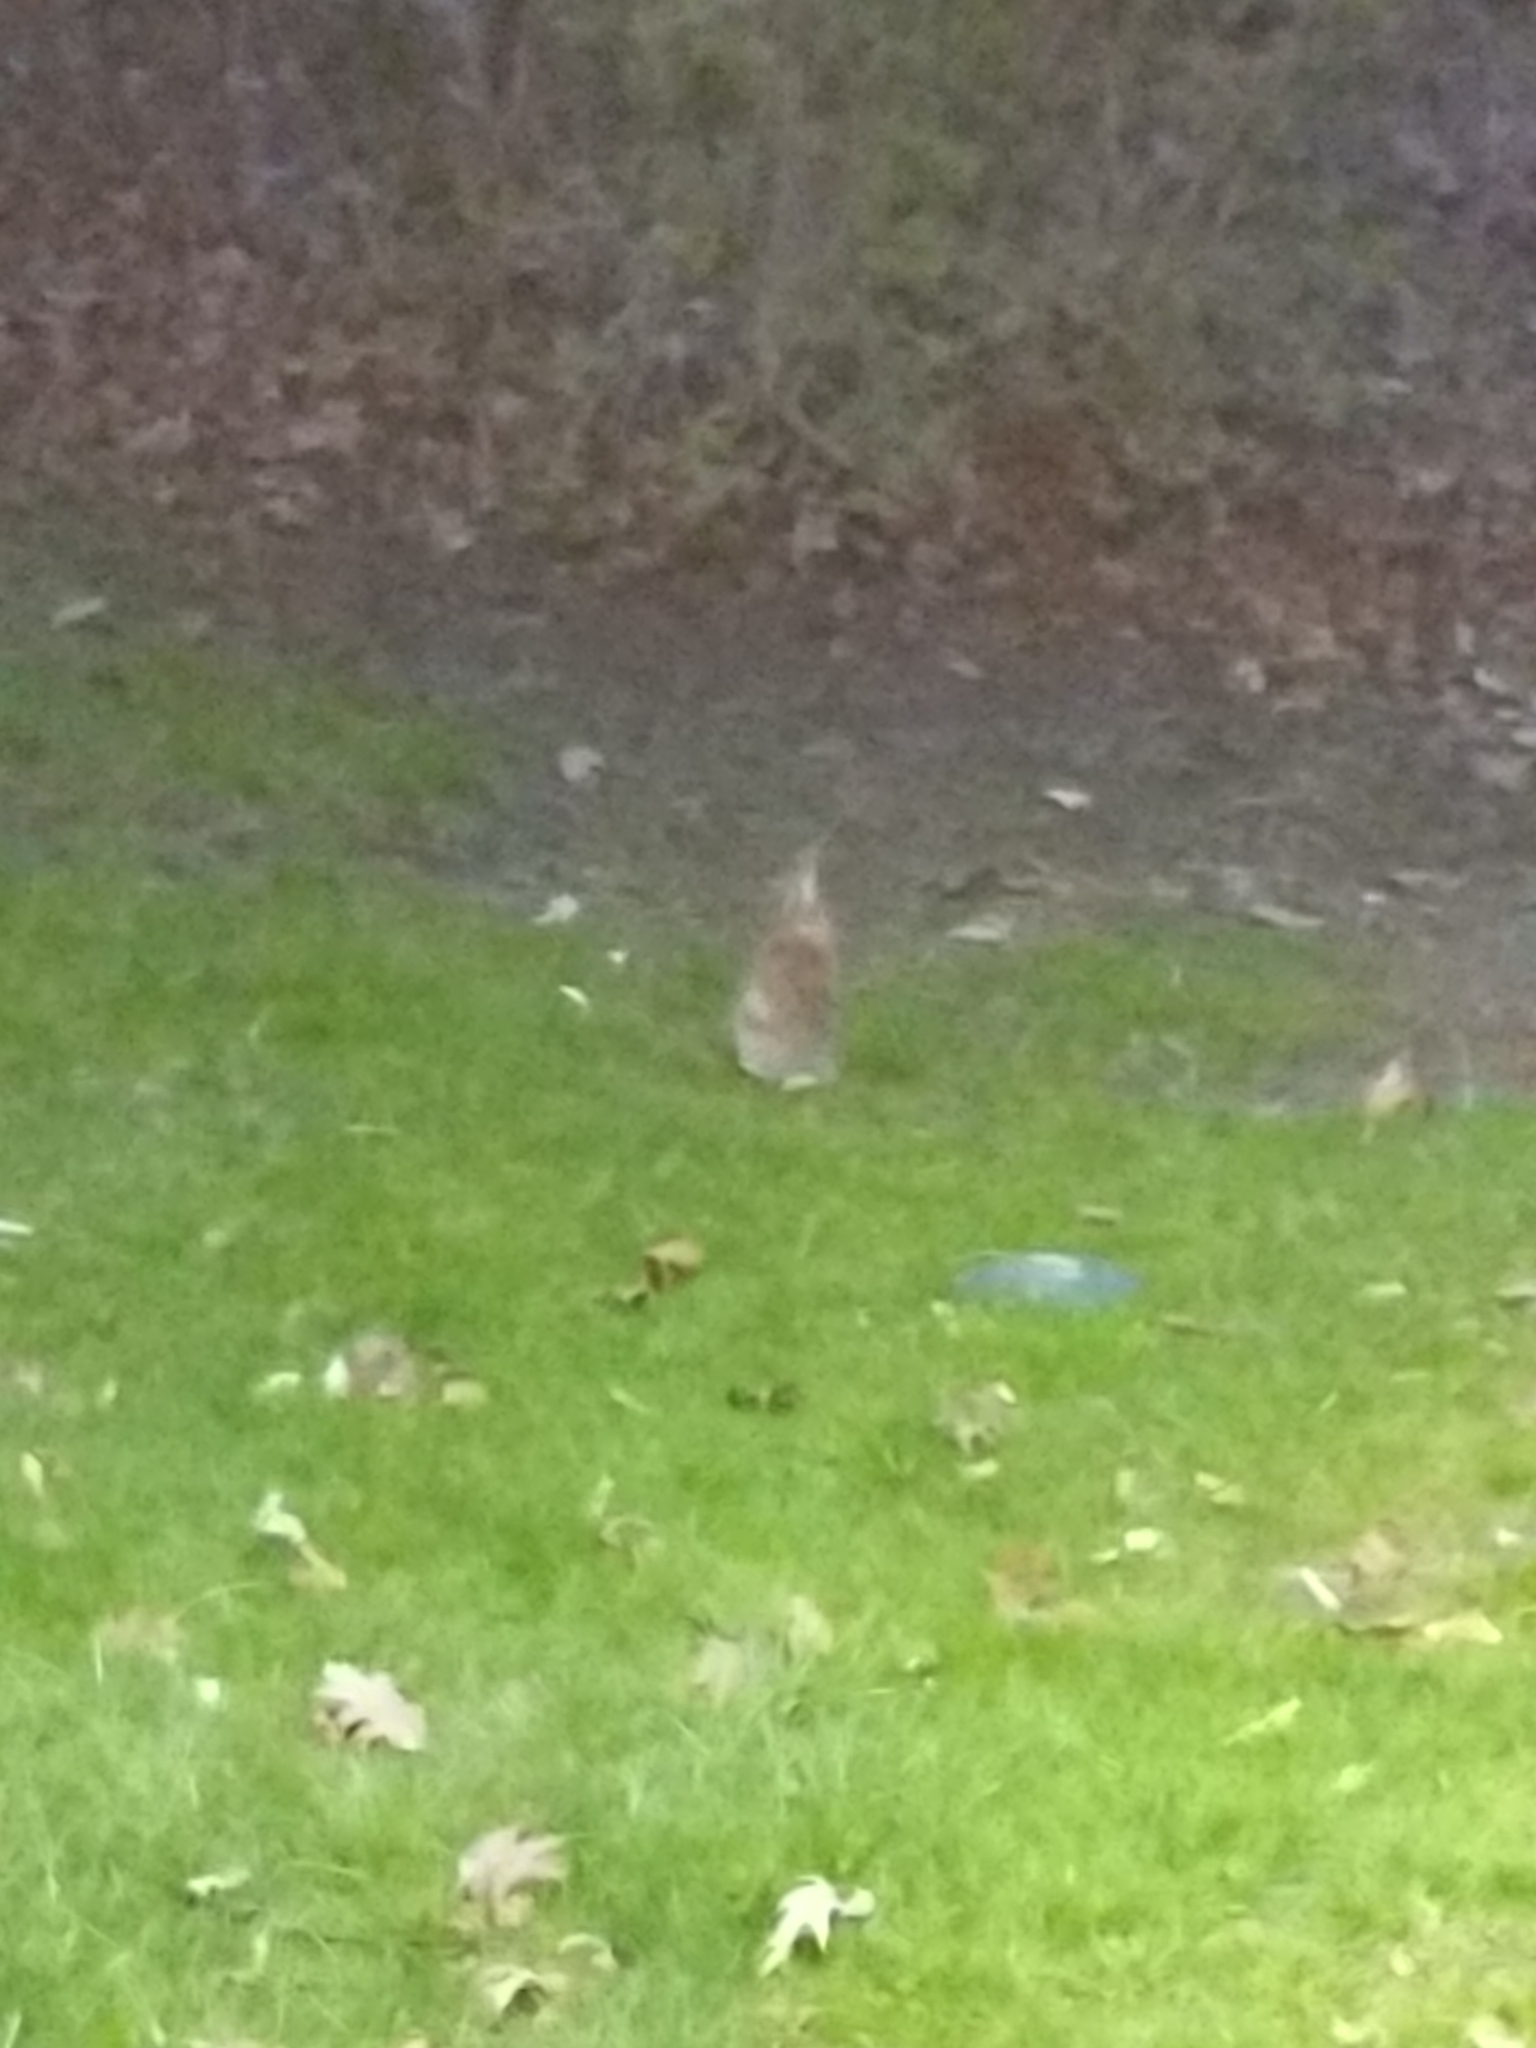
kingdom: Animalia
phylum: Chordata
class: Mammalia
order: Lagomorpha
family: Leporidae
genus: Sylvilagus
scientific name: Sylvilagus floridanus
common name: Eastern cottontail
